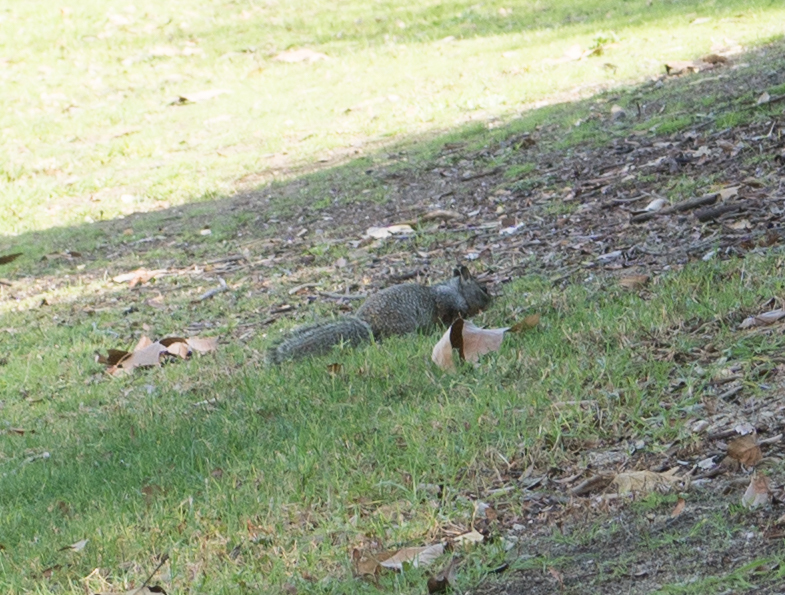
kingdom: Animalia
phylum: Chordata
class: Mammalia
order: Rodentia
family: Sciuridae
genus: Otospermophilus
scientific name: Otospermophilus beecheyi
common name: California ground squirrel
